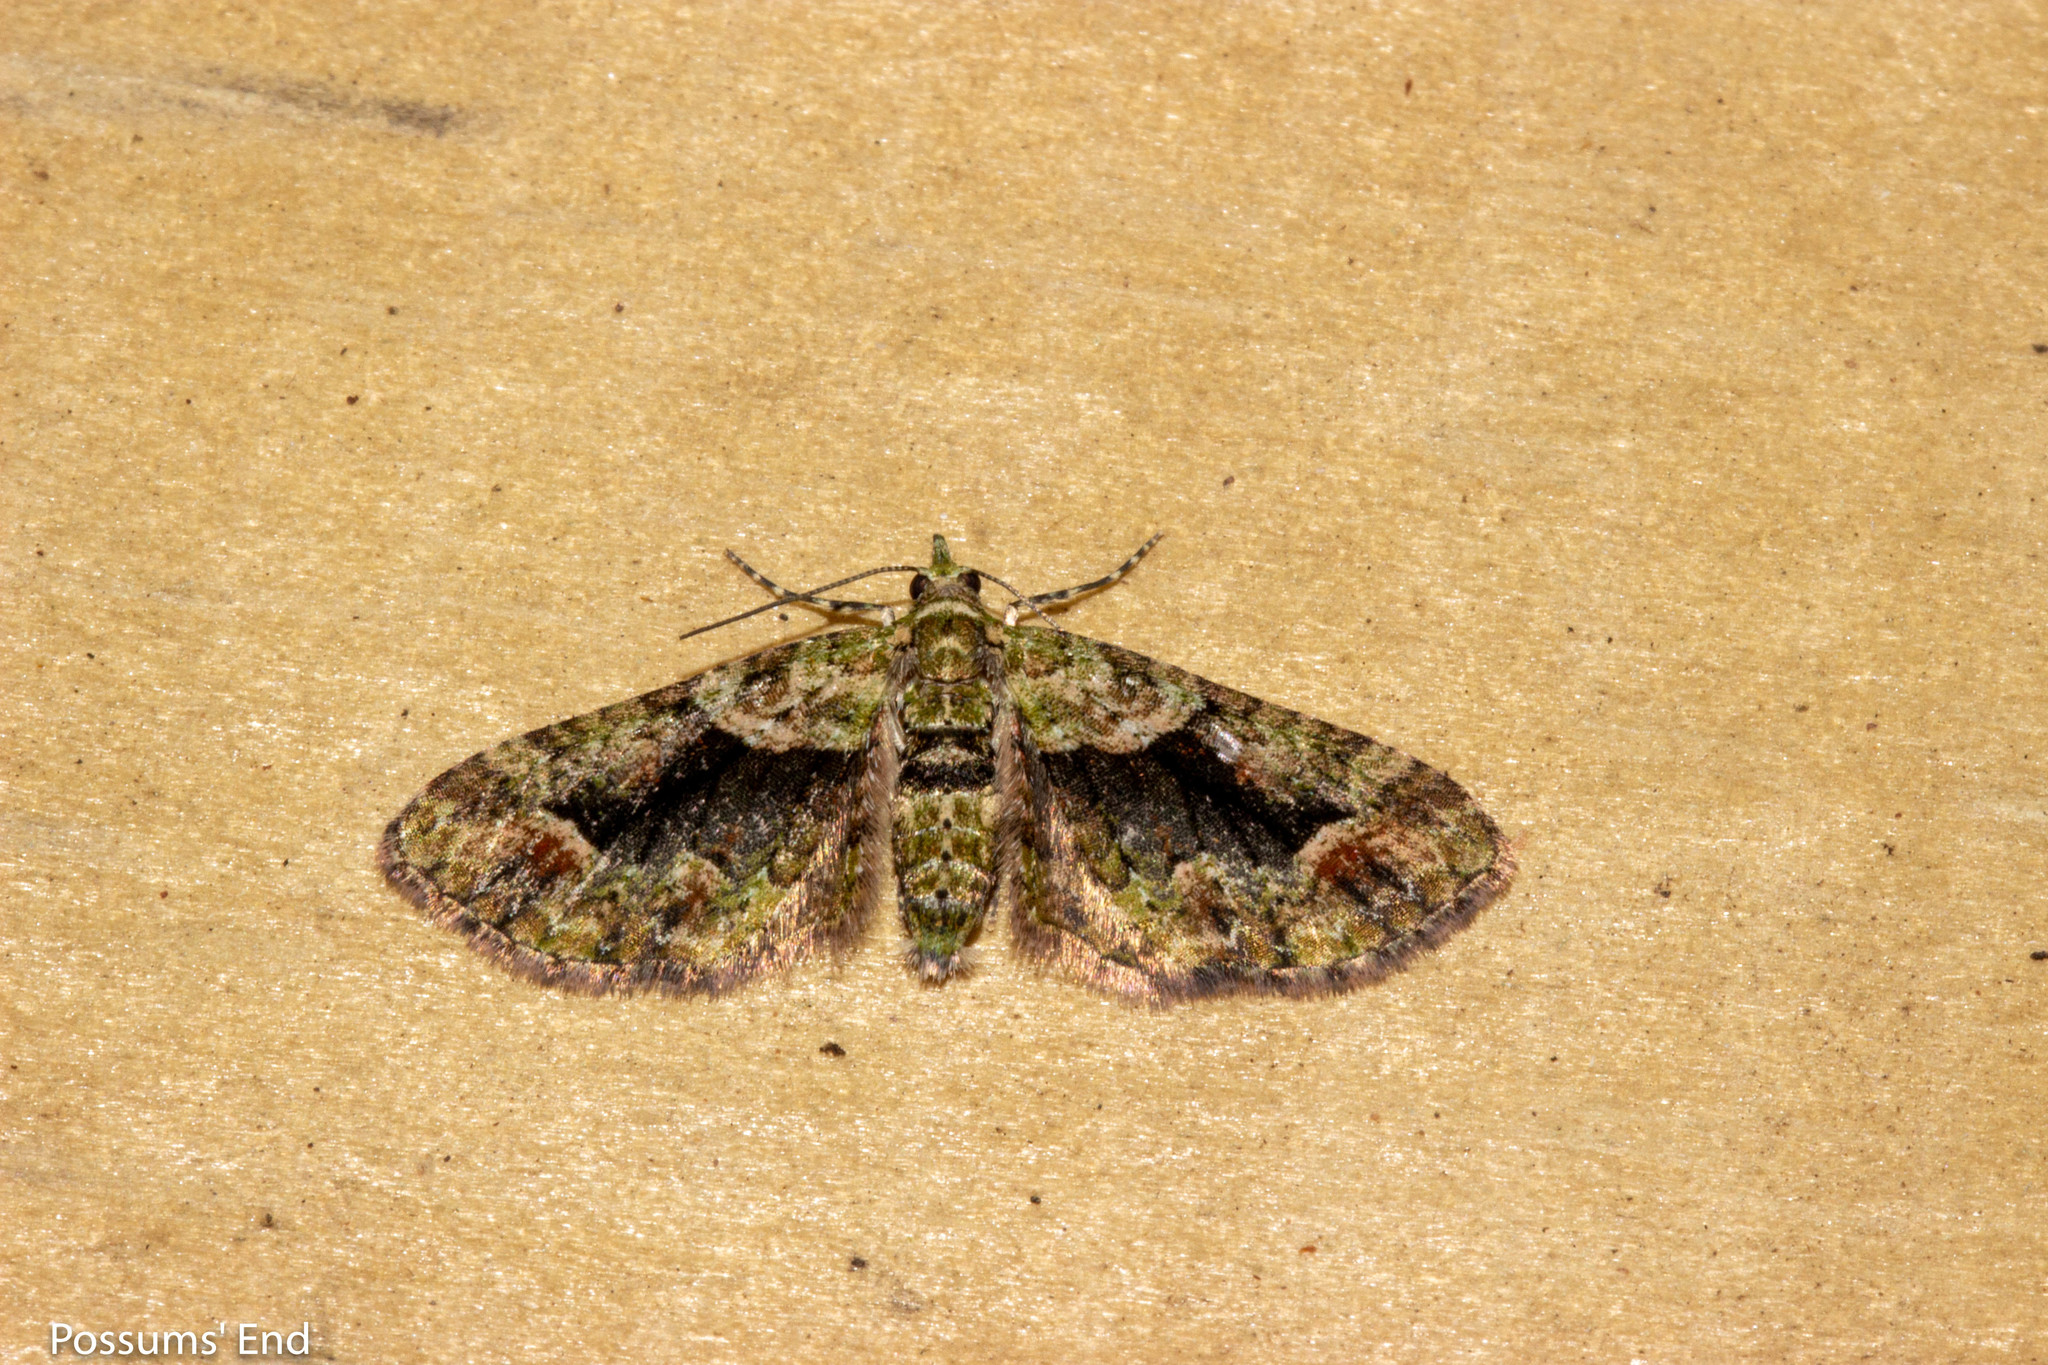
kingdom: Animalia
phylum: Arthropoda
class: Insecta
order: Lepidoptera
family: Geometridae
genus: Idaea
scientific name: Idaea mutanda
